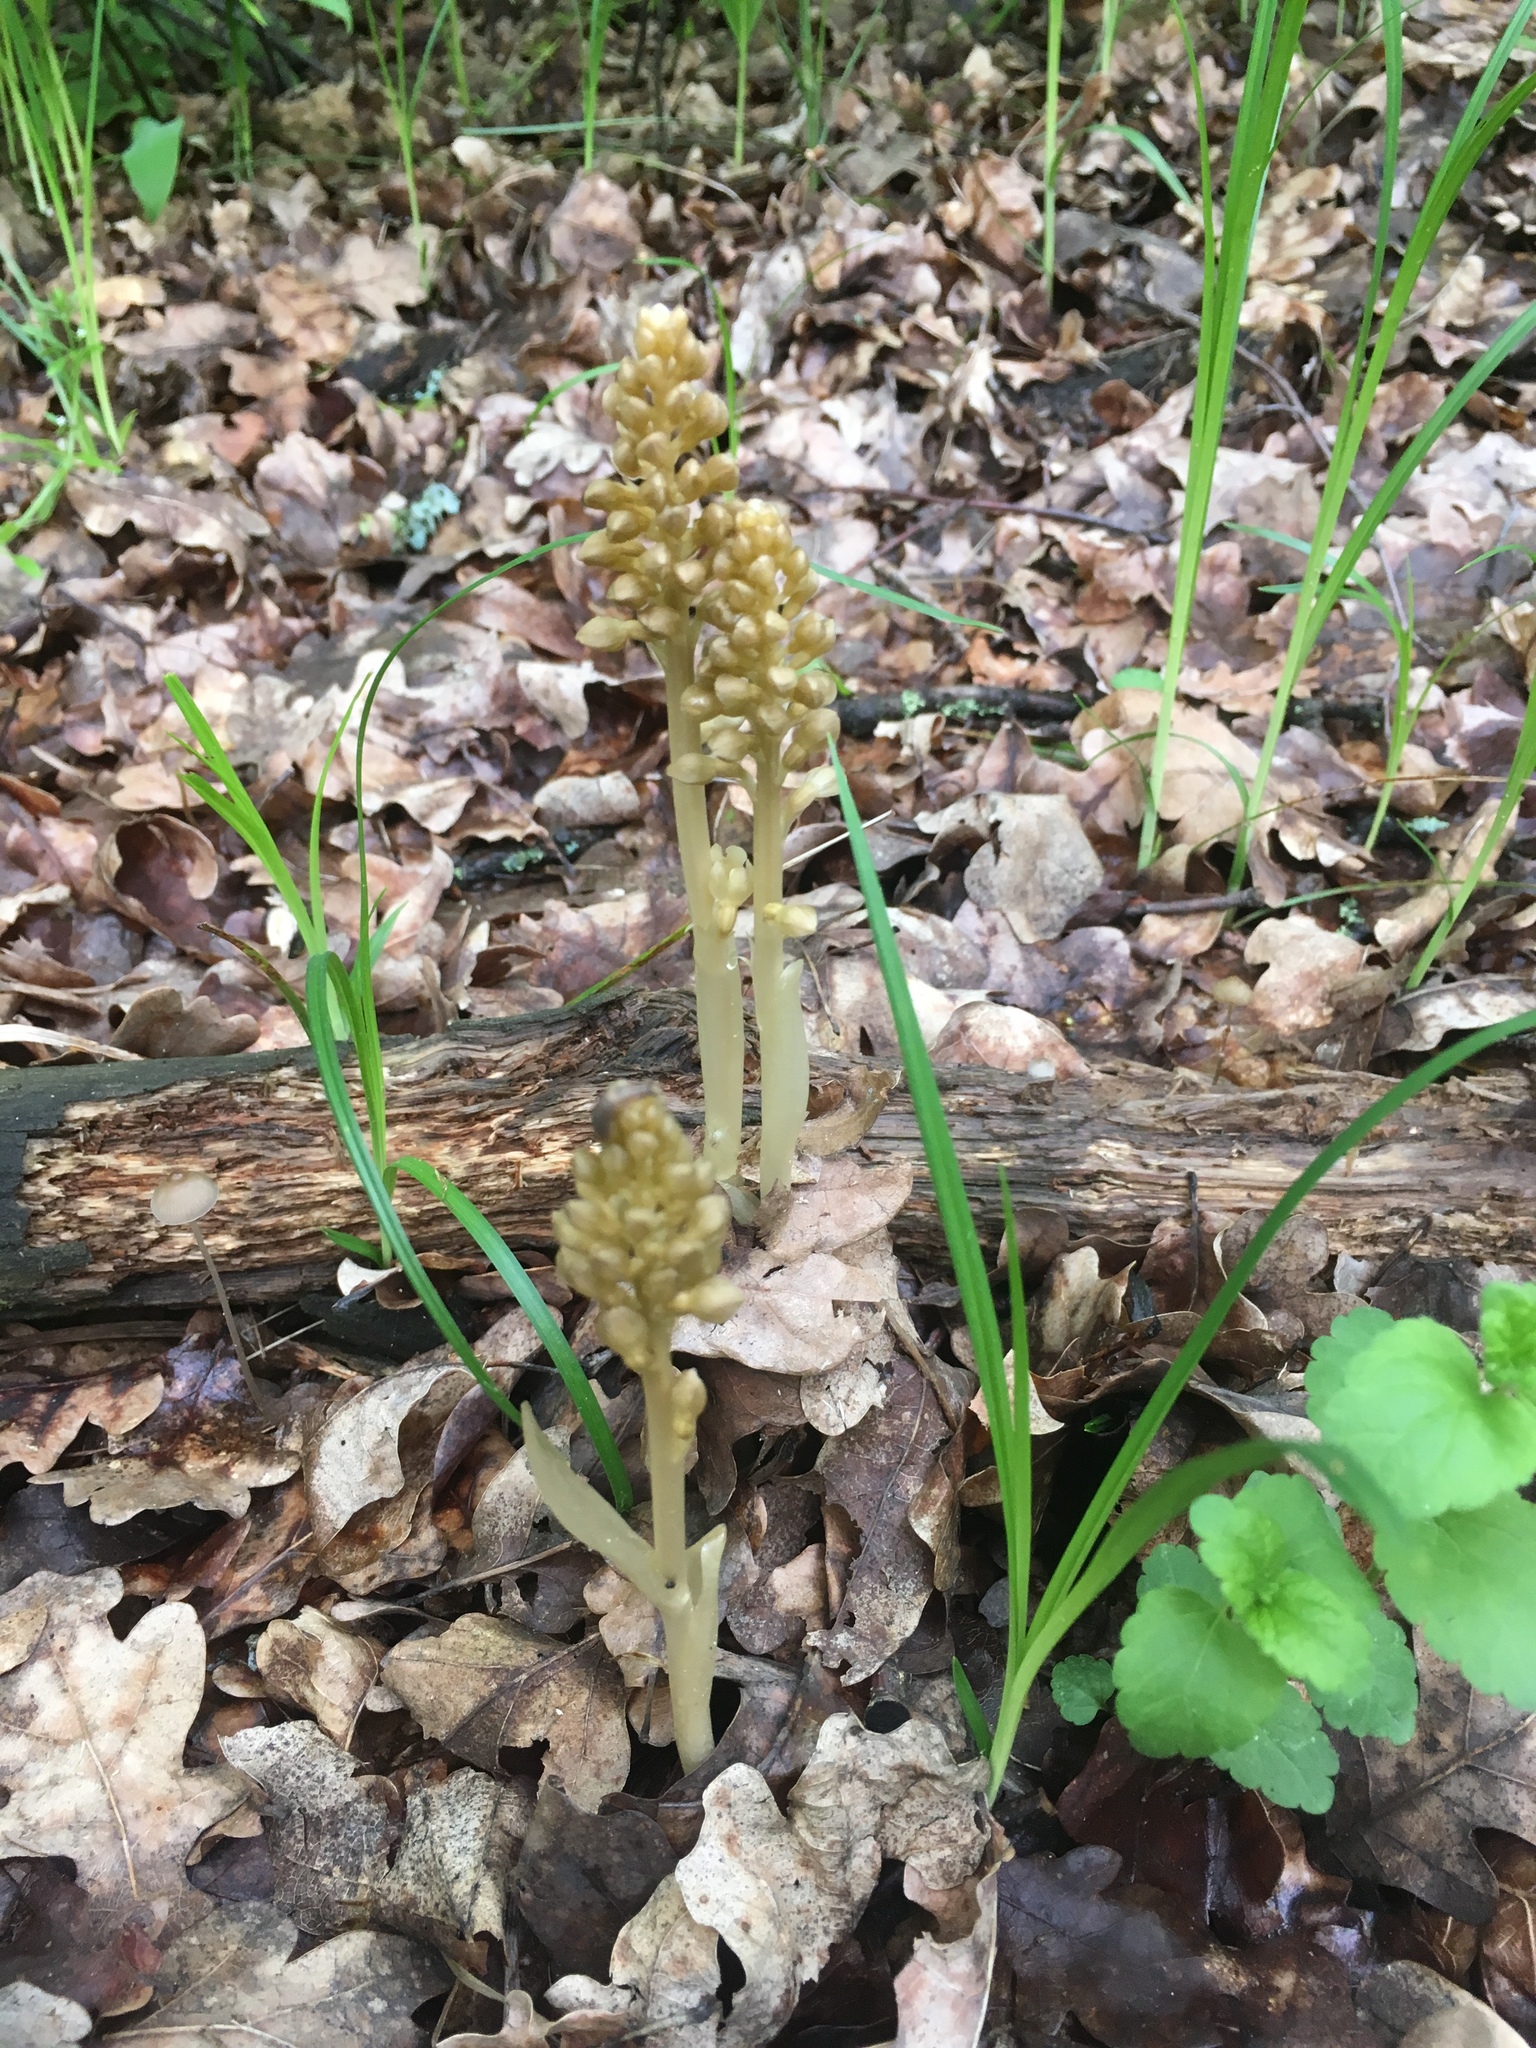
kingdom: Plantae
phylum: Tracheophyta
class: Liliopsida
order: Asparagales
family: Orchidaceae
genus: Neottia
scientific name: Neottia nidus-avis
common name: Bird's-nest orchid
